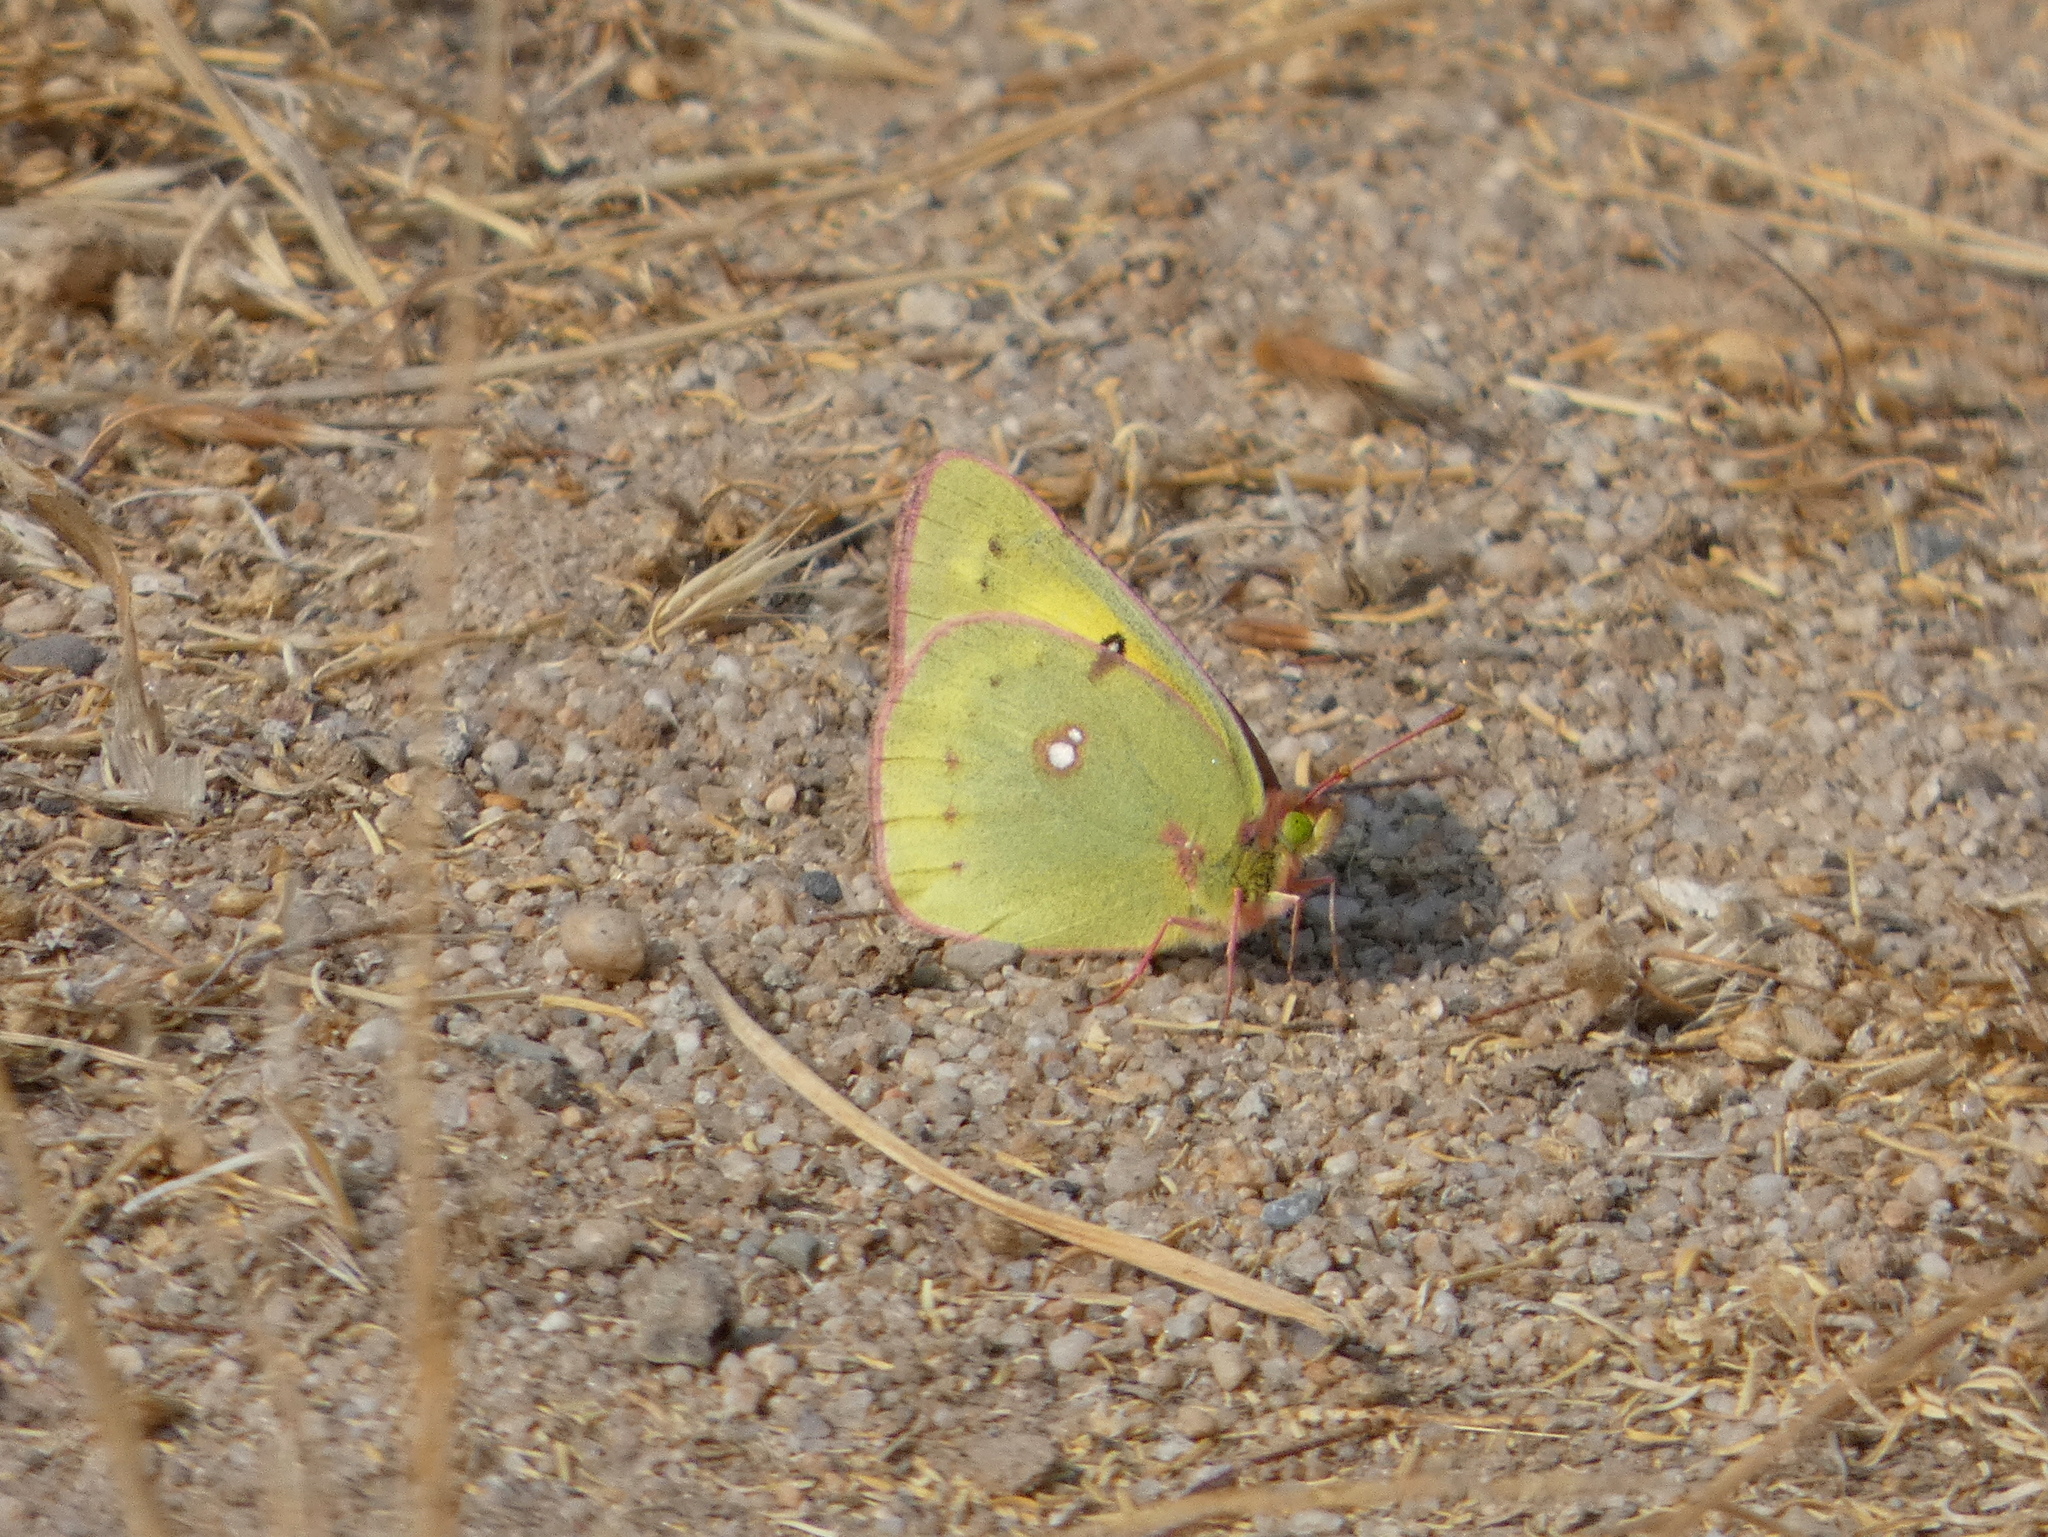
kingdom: Animalia
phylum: Arthropoda
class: Insecta
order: Lepidoptera
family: Pieridae
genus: Colias
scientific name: Colias eurytheme
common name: Alfalfa butterfly
